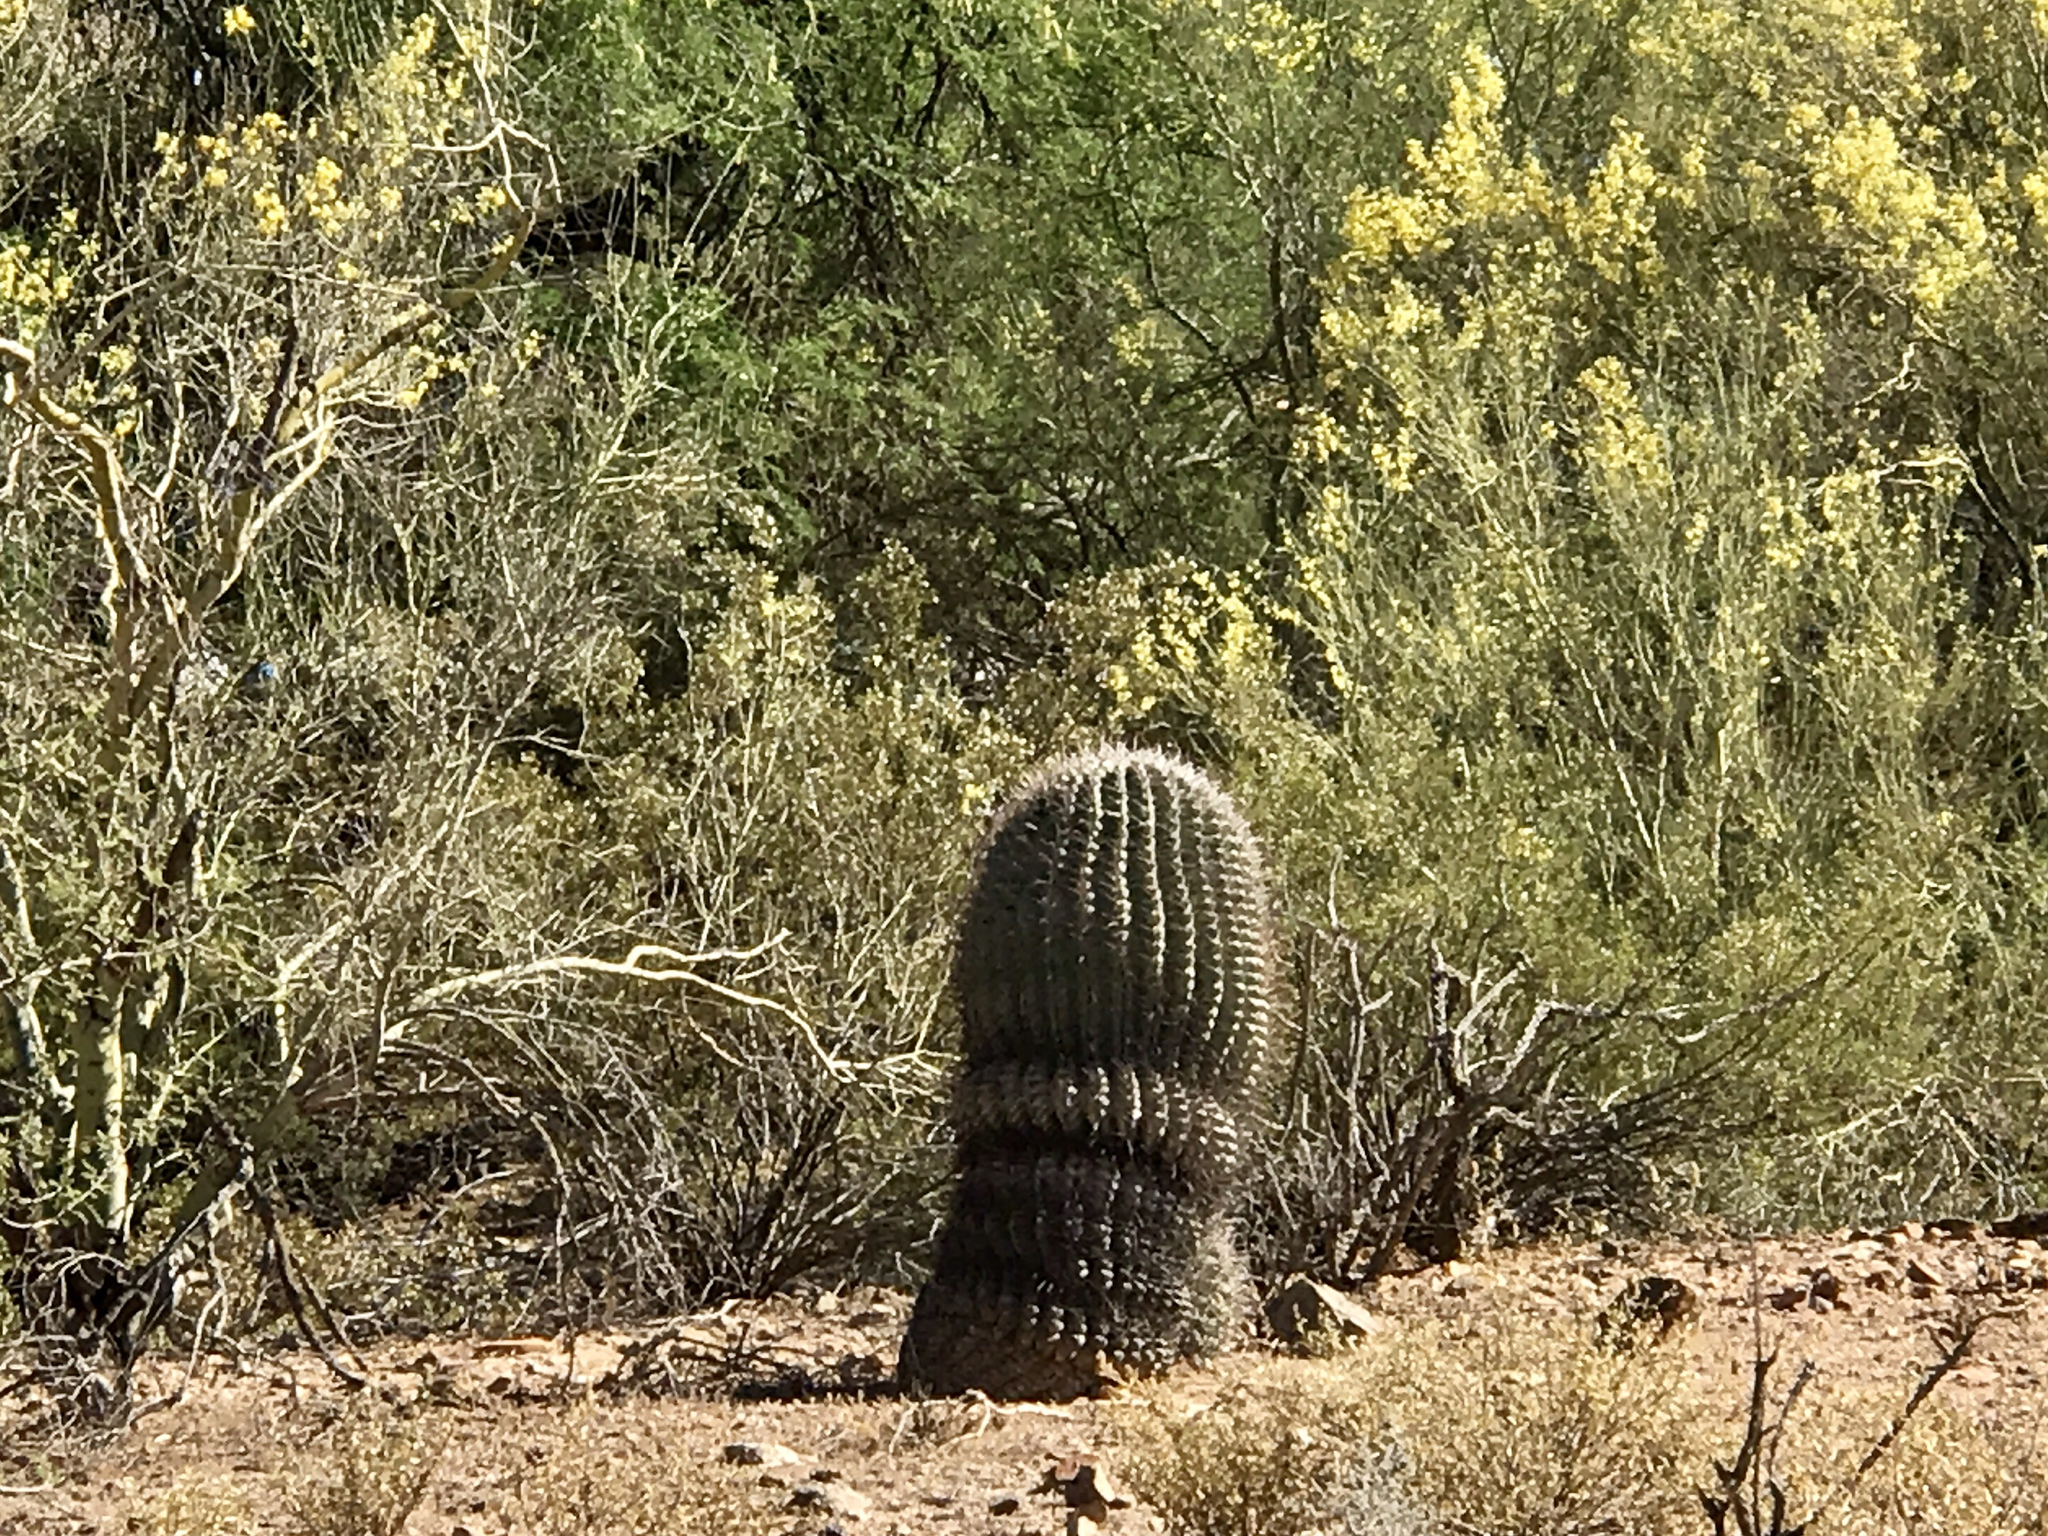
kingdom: Plantae
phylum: Tracheophyta
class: Magnoliopsida
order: Caryophyllales
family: Cactaceae
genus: Ferocactus
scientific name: Ferocactus wislizeni
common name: Candy barrel cactus
